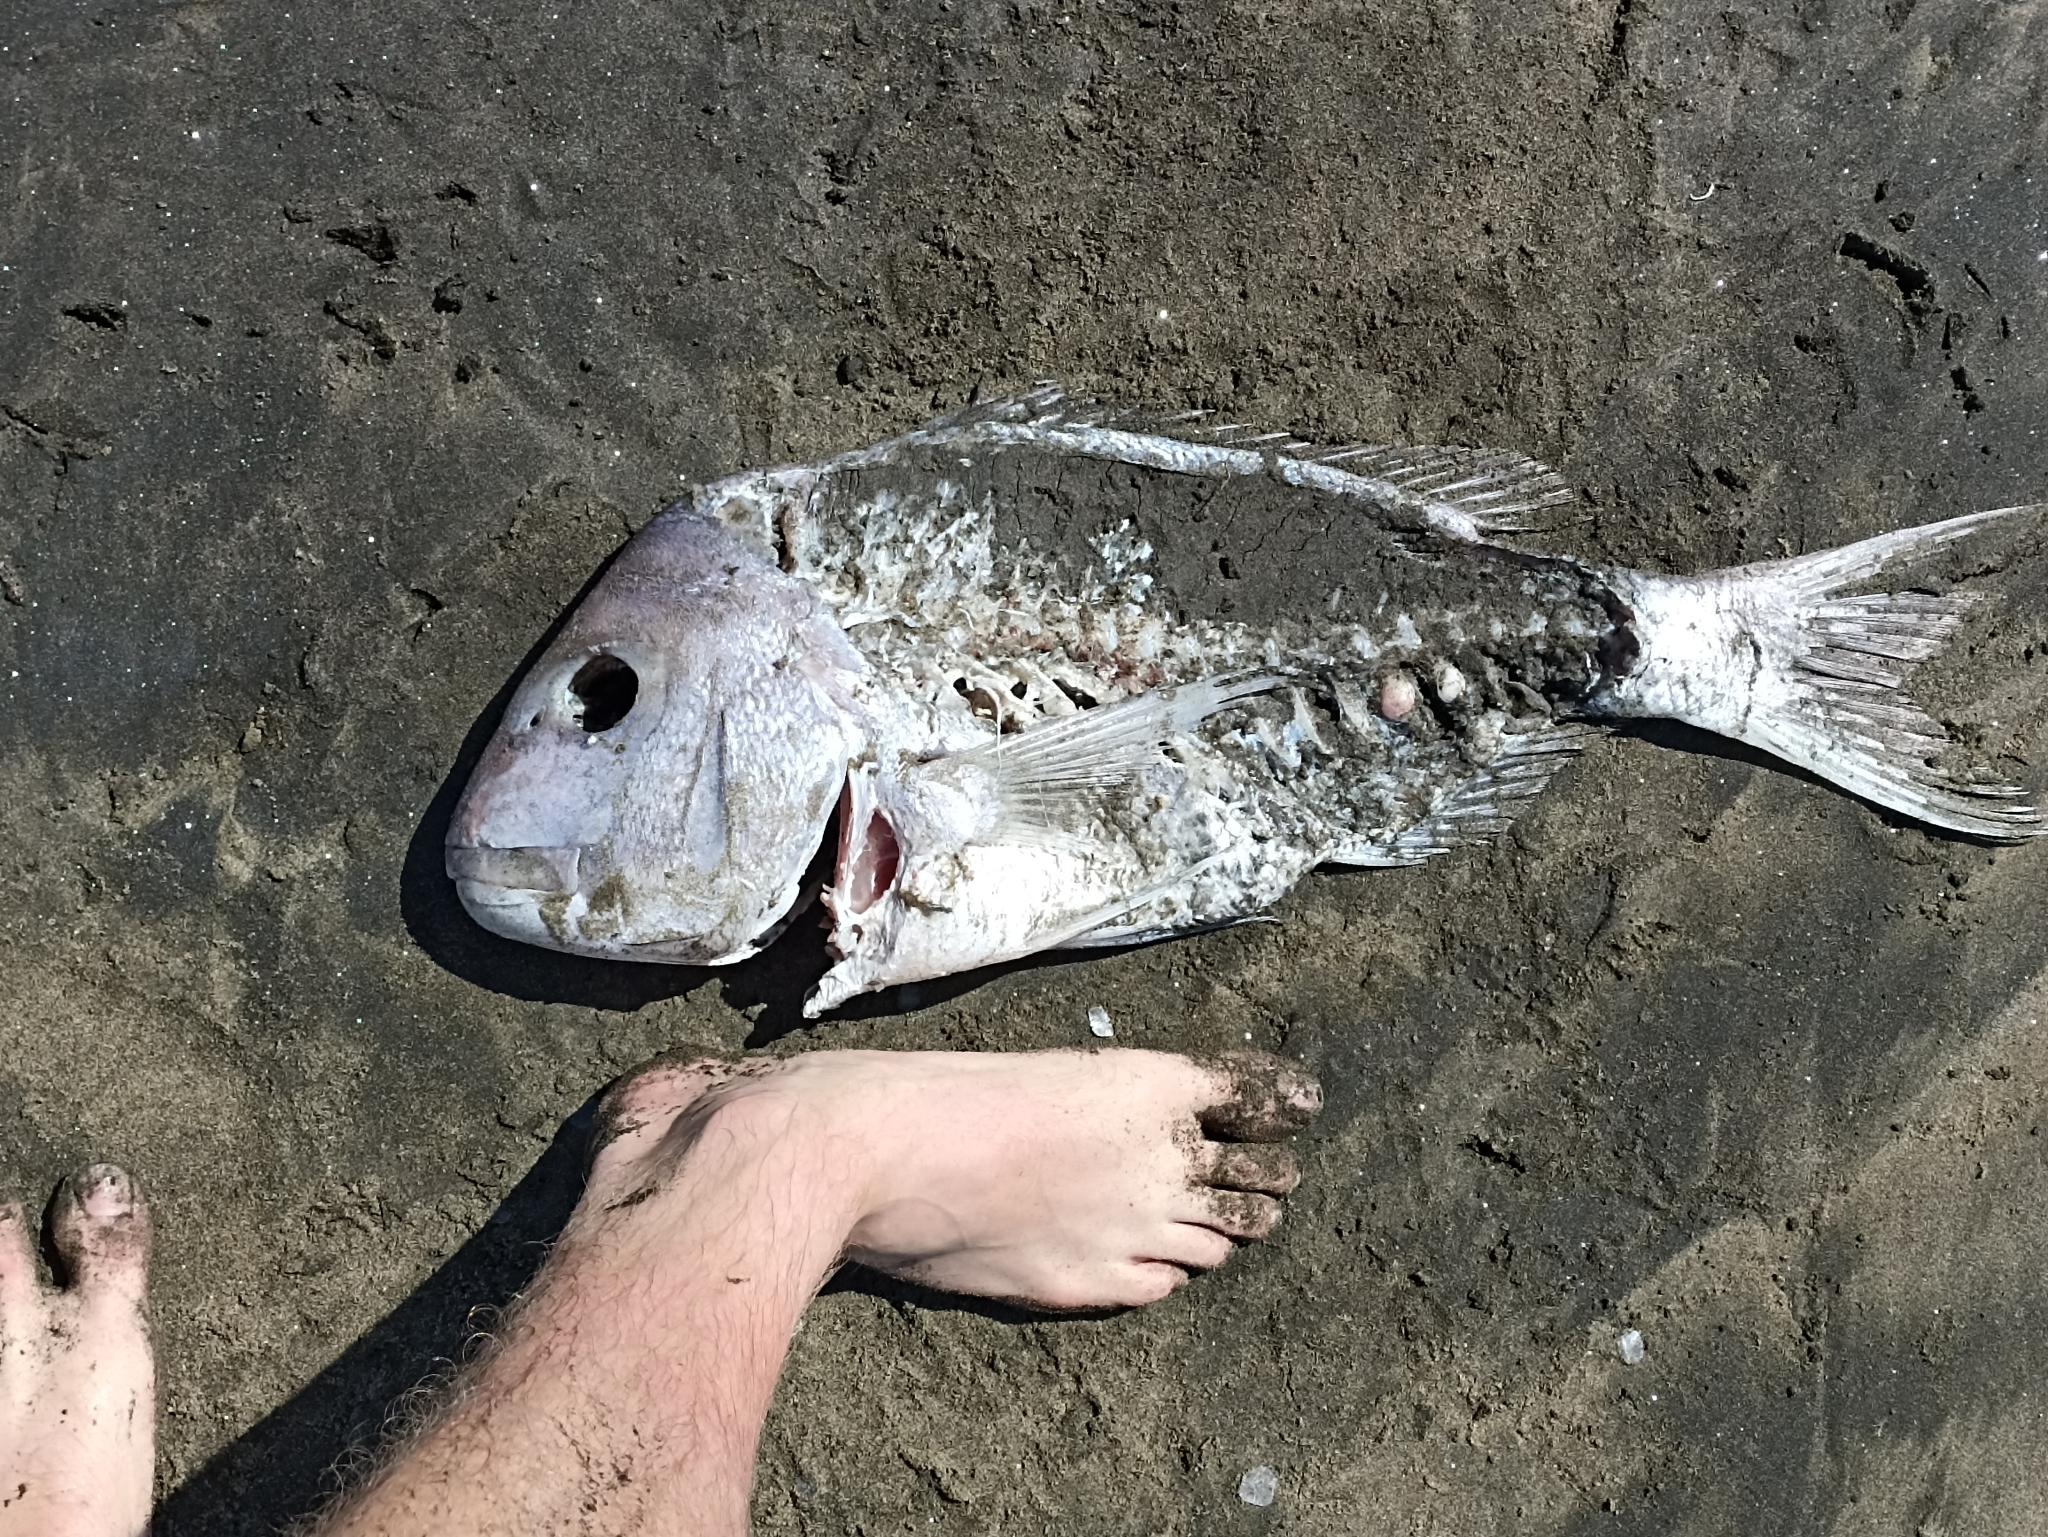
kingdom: Animalia
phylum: Chordata
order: Perciformes
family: Sparidae
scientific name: Sparidae
